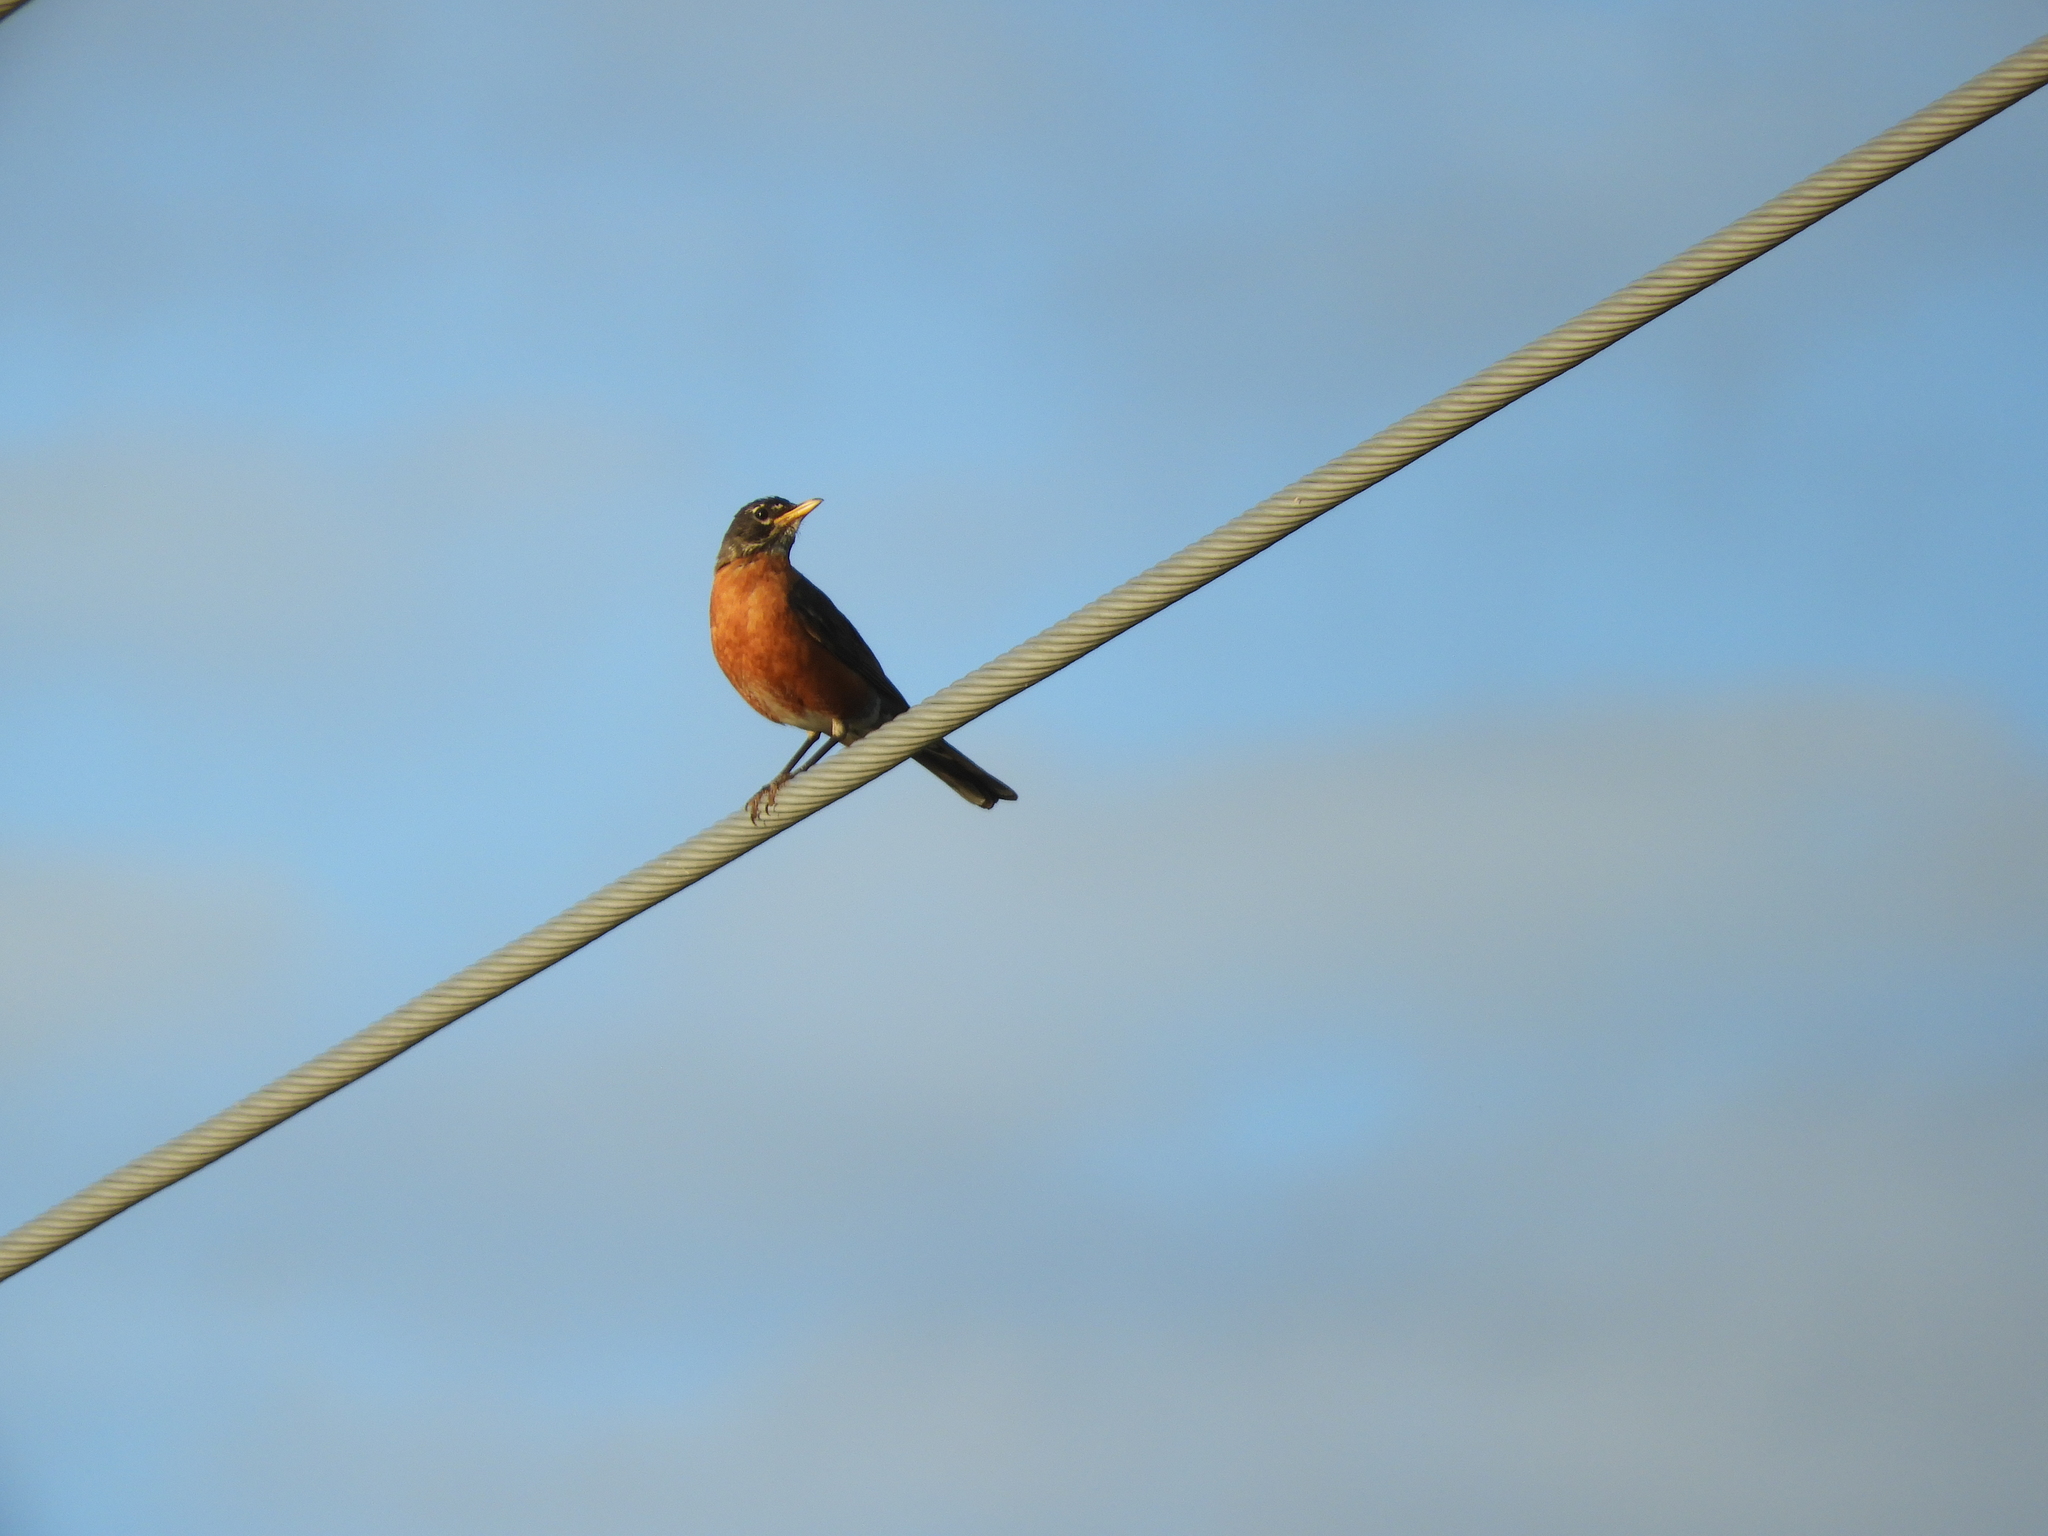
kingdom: Animalia
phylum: Chordata
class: Aves
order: Passeriformes
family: Turdidae
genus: Turdus
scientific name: Turdus migratorius
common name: American robin
